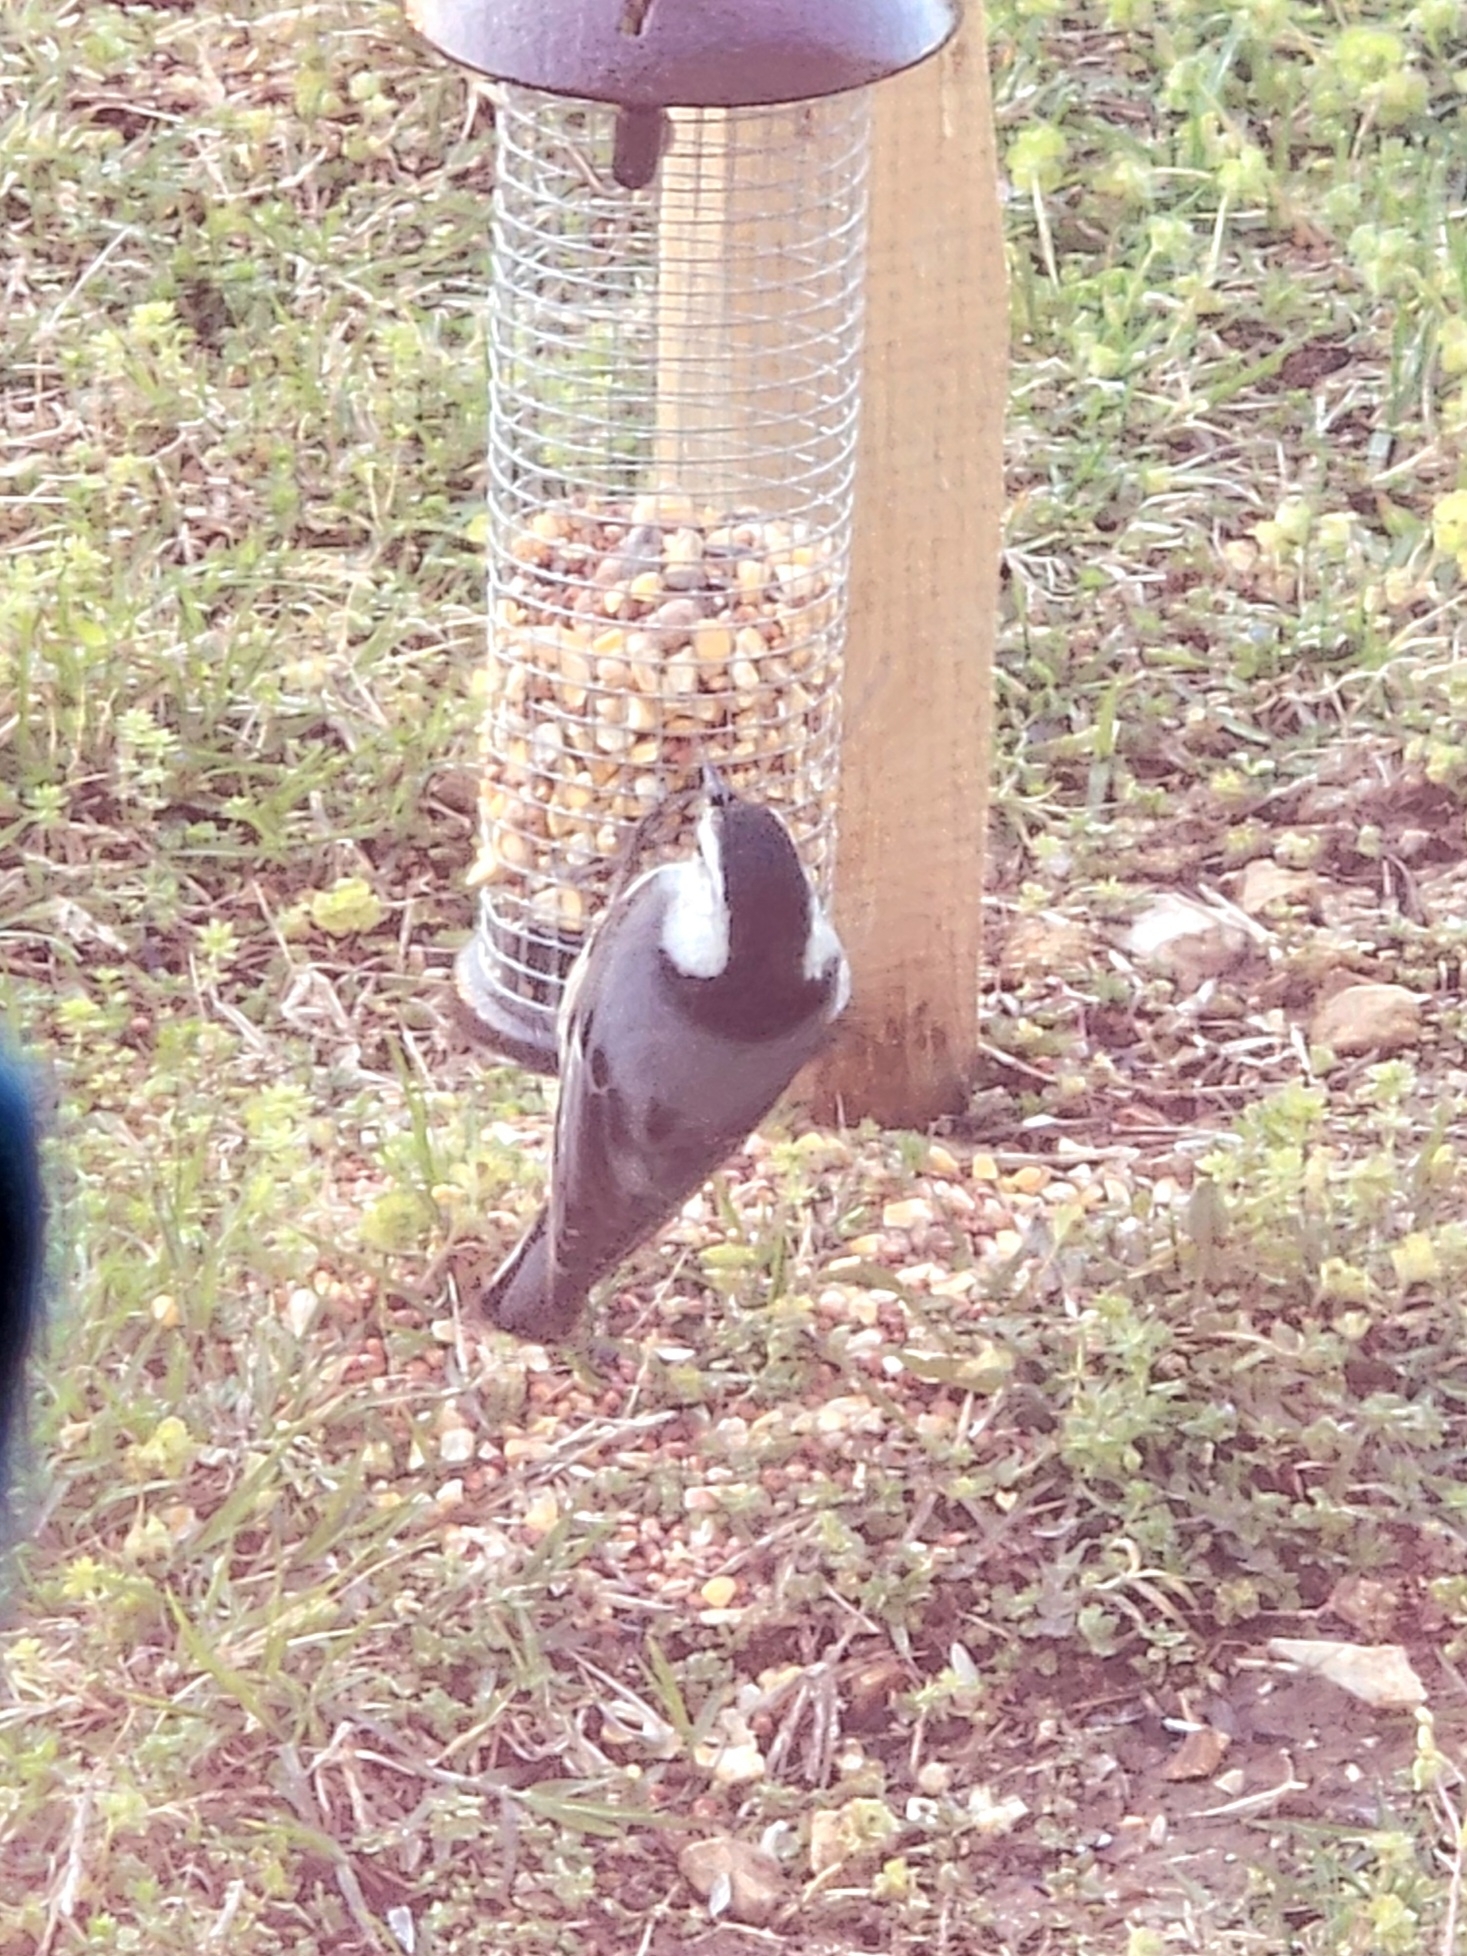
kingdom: Animalia
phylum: Chordata
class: Aves
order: Passeriformes
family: Sittidae
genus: Sitta
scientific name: Sitta carolinensis
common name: White-breasted nuthatch
